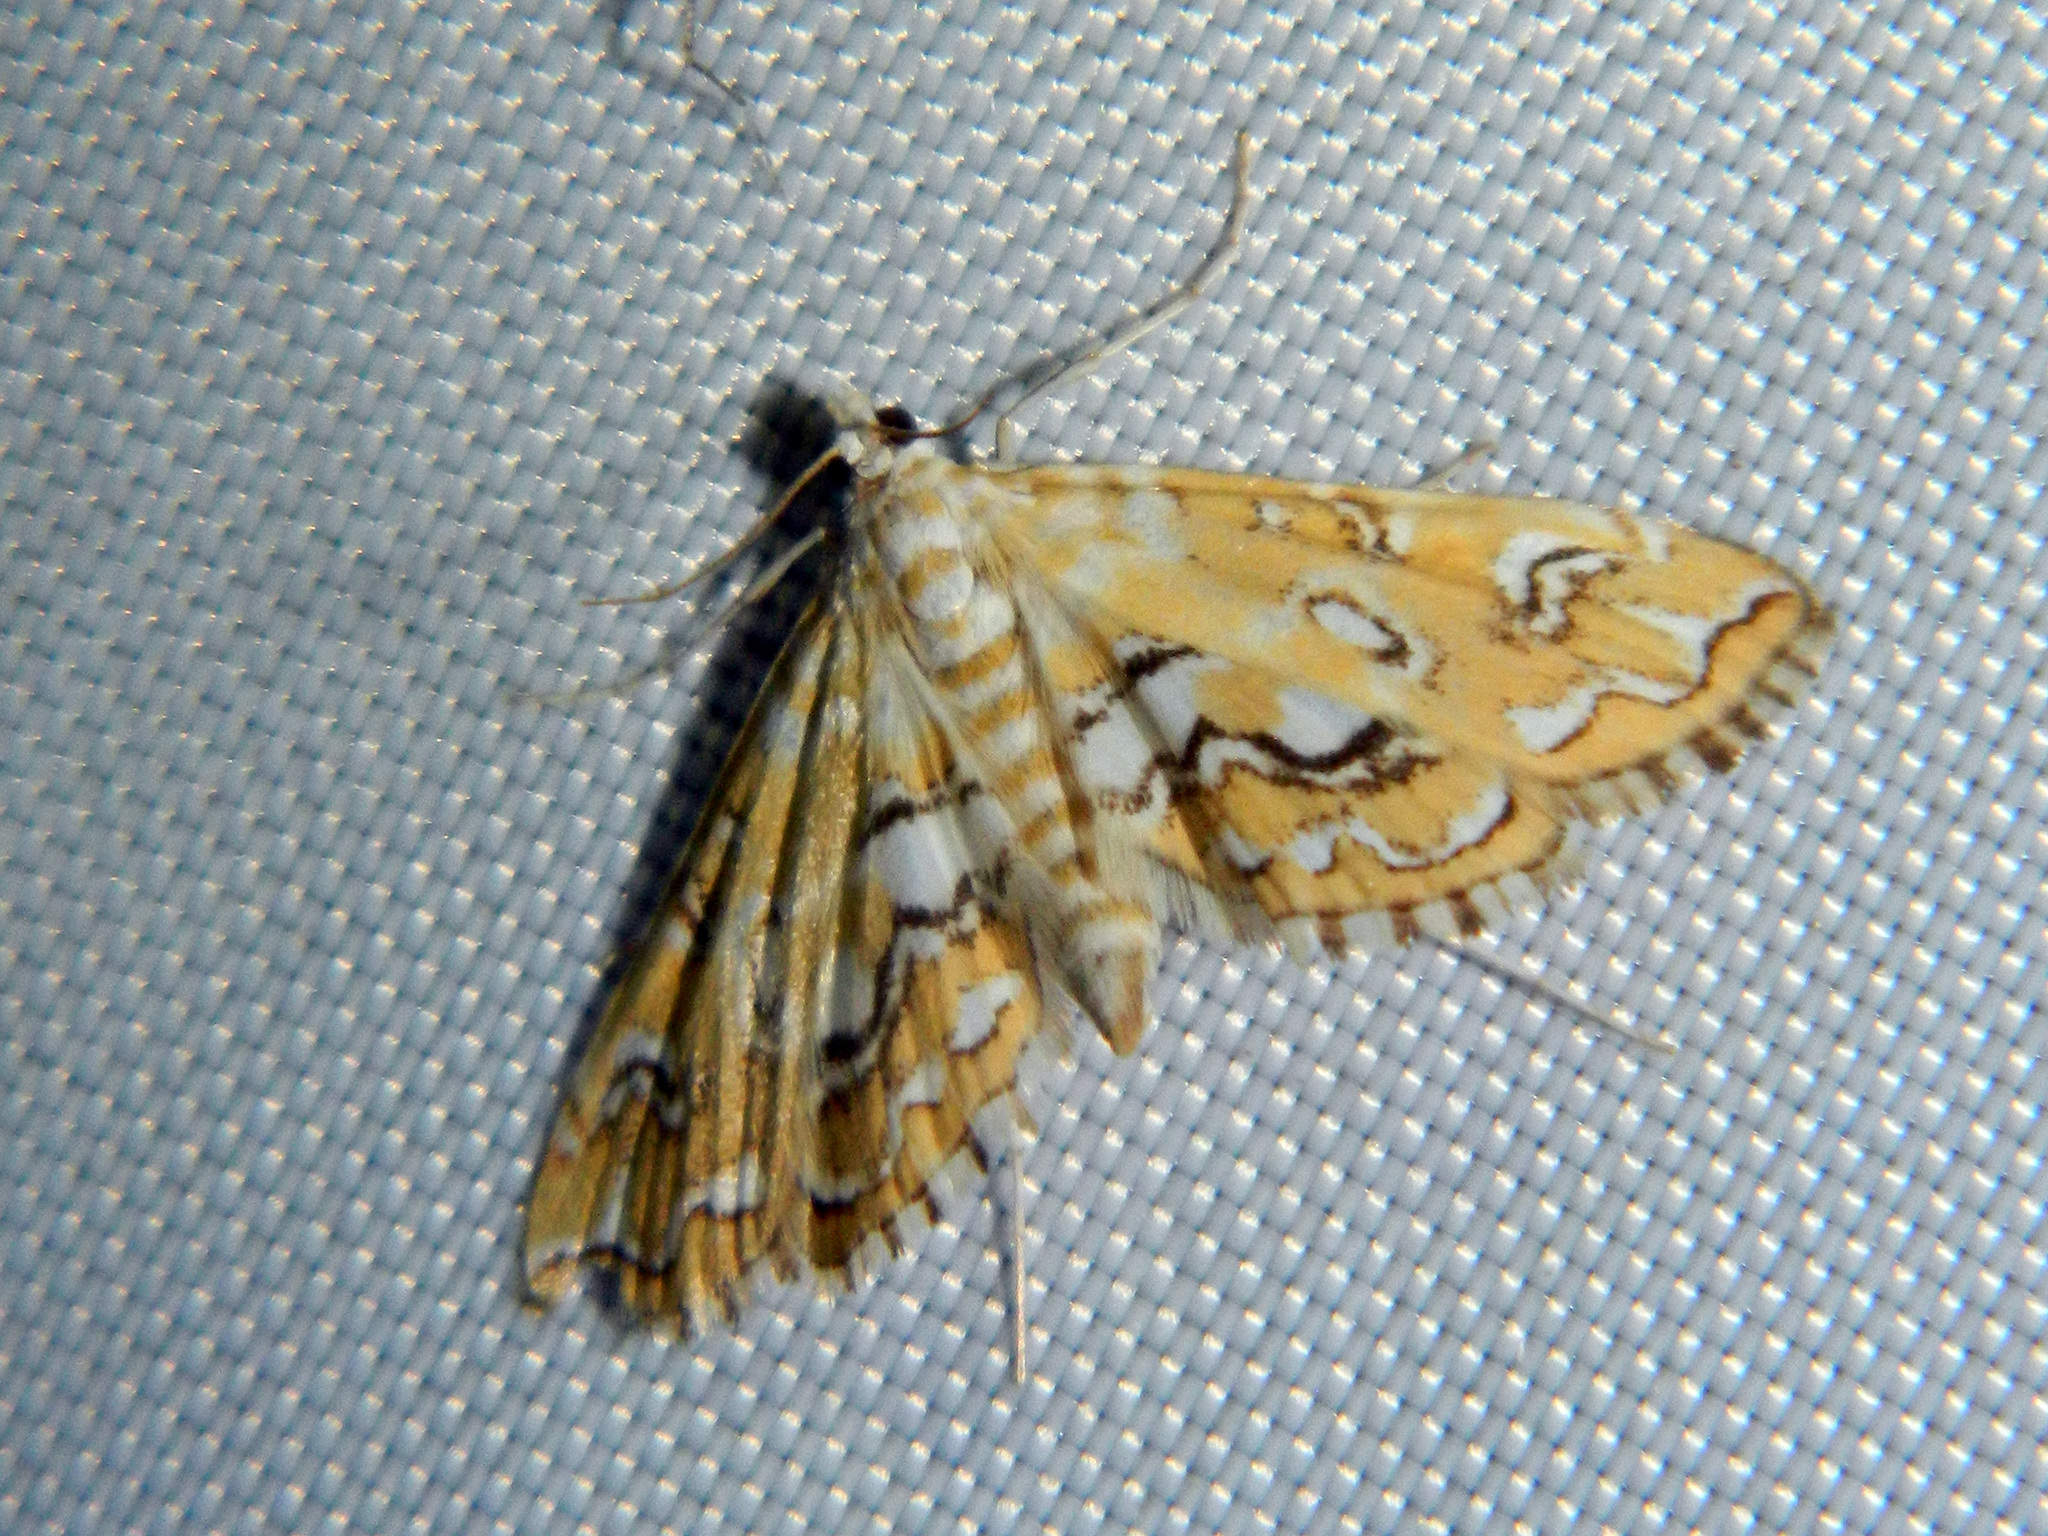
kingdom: Animalia
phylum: Arthropoda
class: Insecta
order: Lepidoptera
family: Crambidae
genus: Elophila
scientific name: Elophila icciusalis
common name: Pondside pyralid moth
